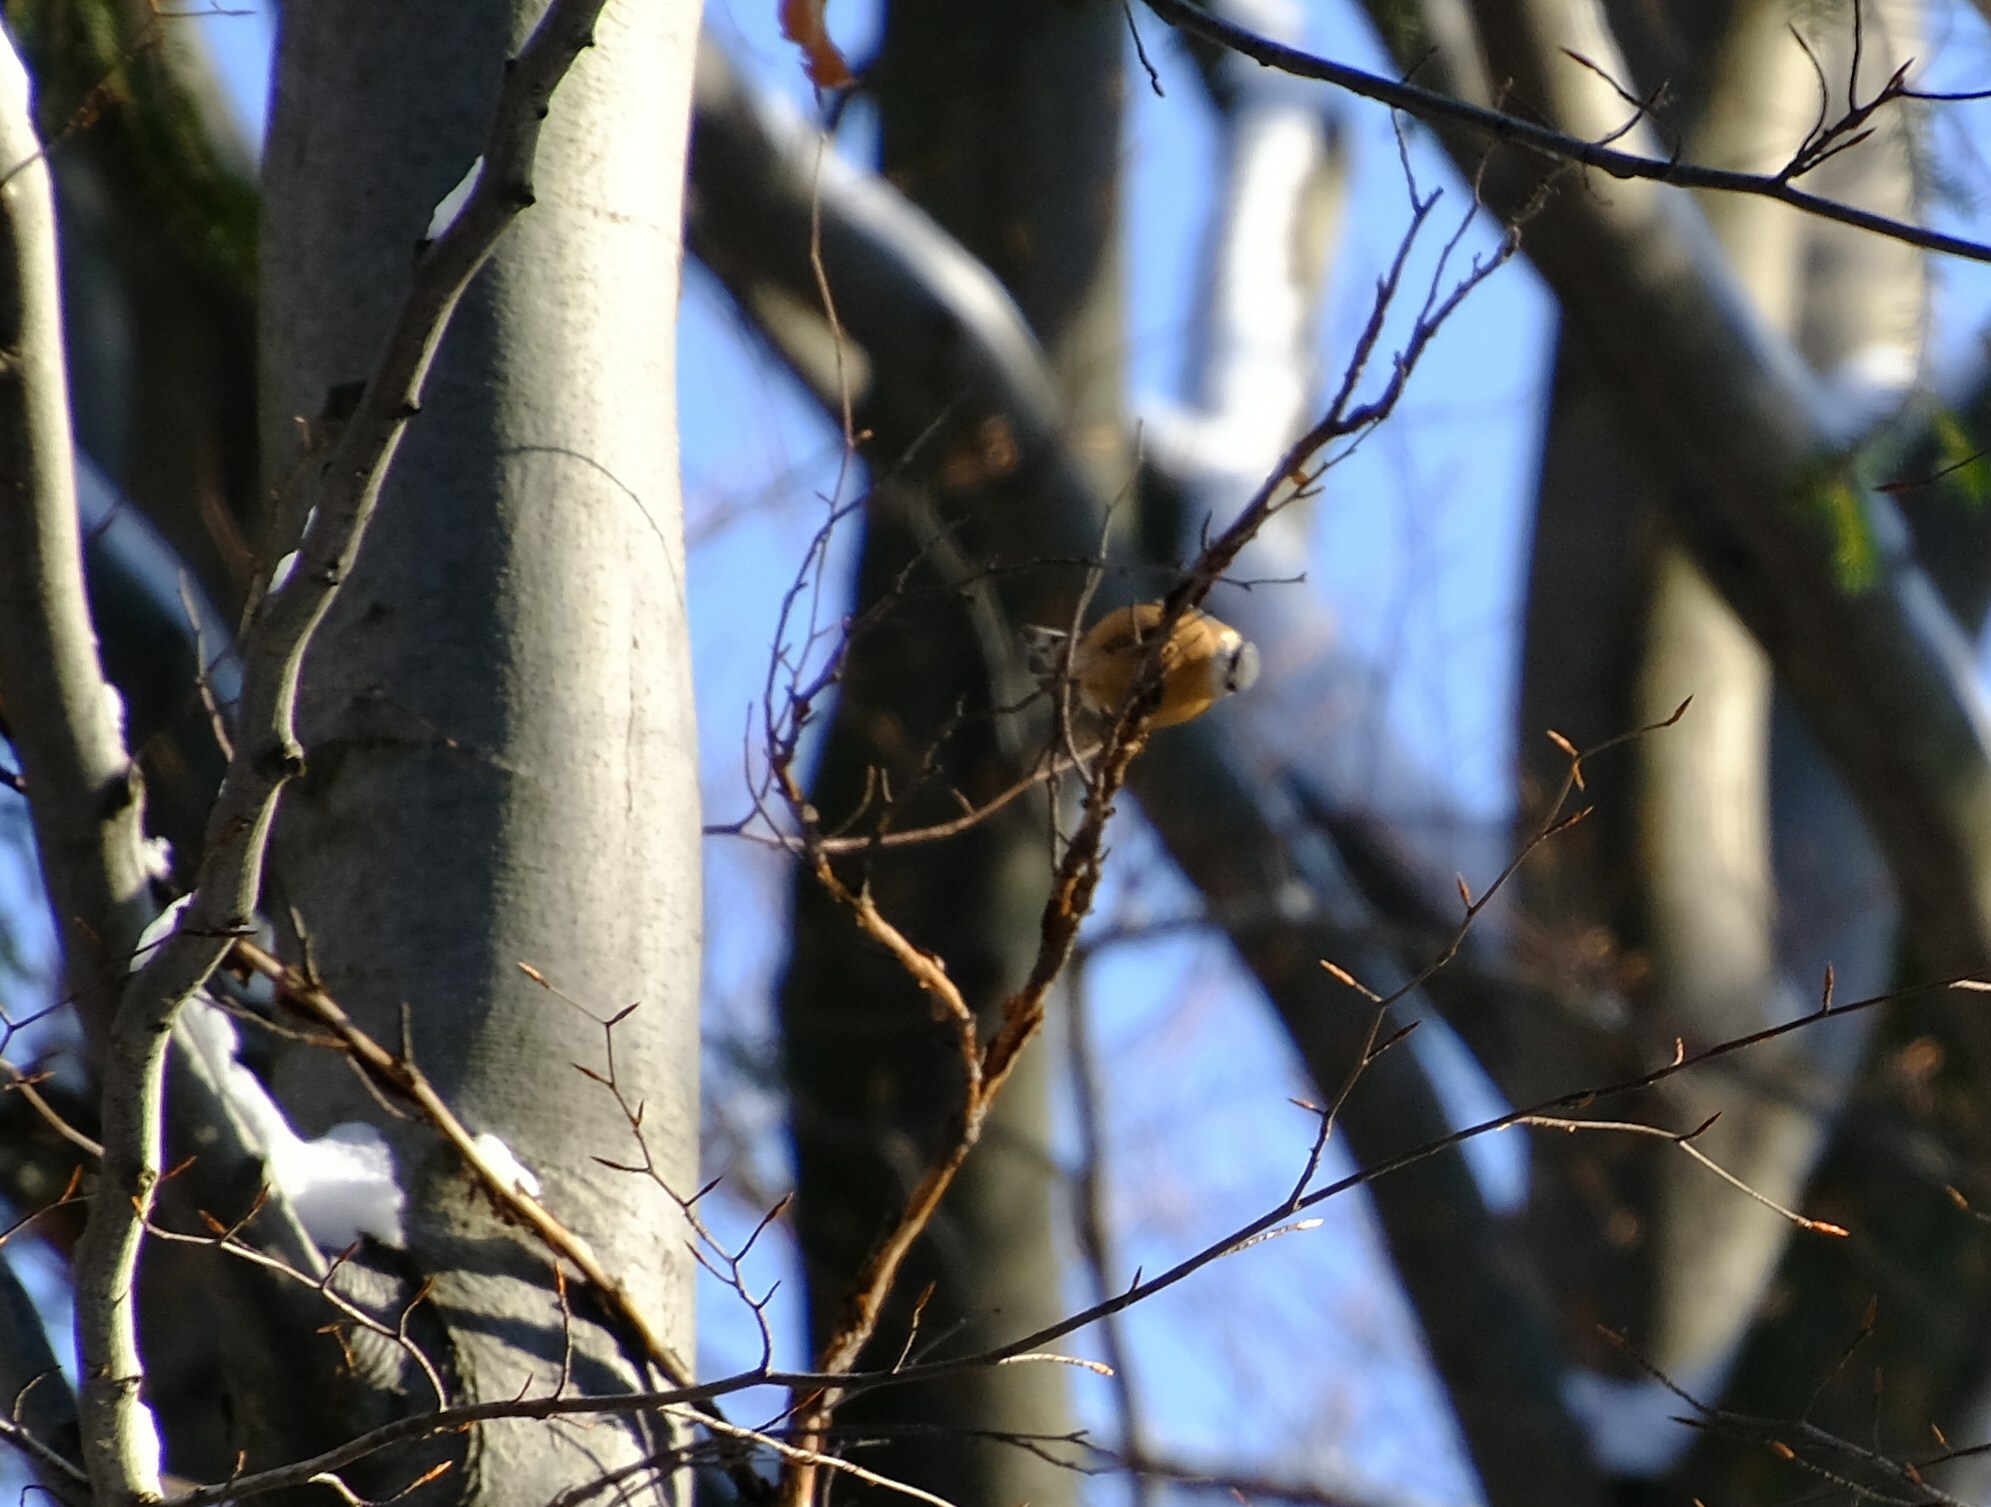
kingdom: Animalia
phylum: Chordata
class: Aves
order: Passeriformes
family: Sittidae
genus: Sitta
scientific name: Sitta europaea
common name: Eurasian nuthatch
